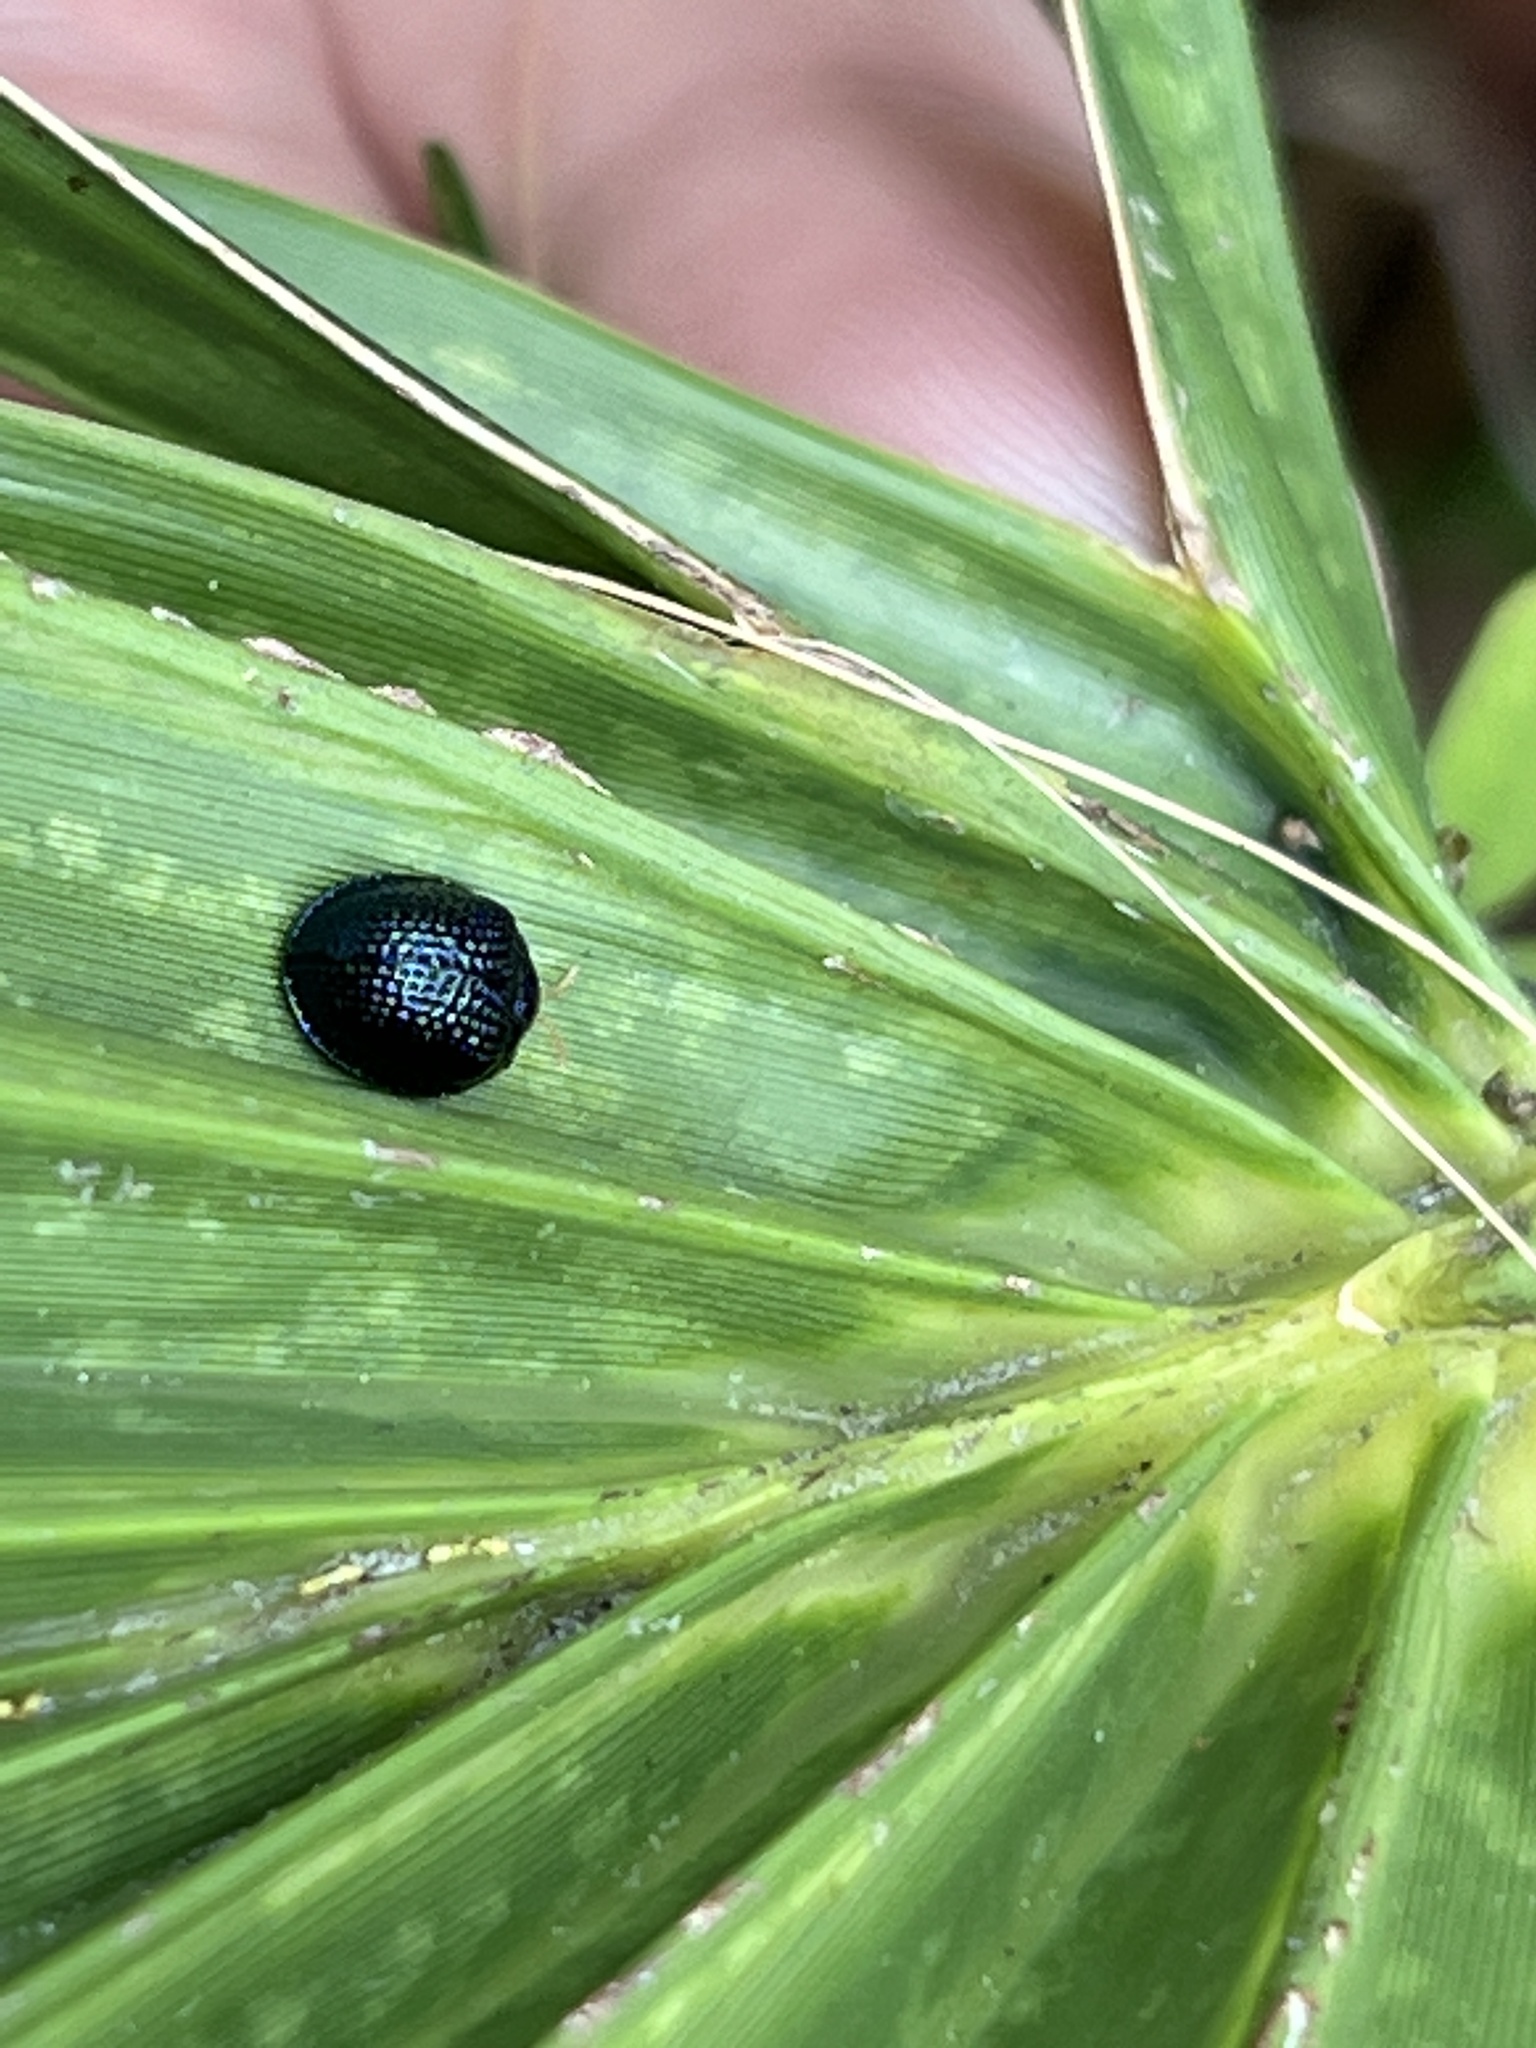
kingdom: Animalia
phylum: Arthropoda
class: Insecta
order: Coleoptera
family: Chrysomelidae
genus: Hemisphaerota
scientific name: Hemisphaerota cyanea
